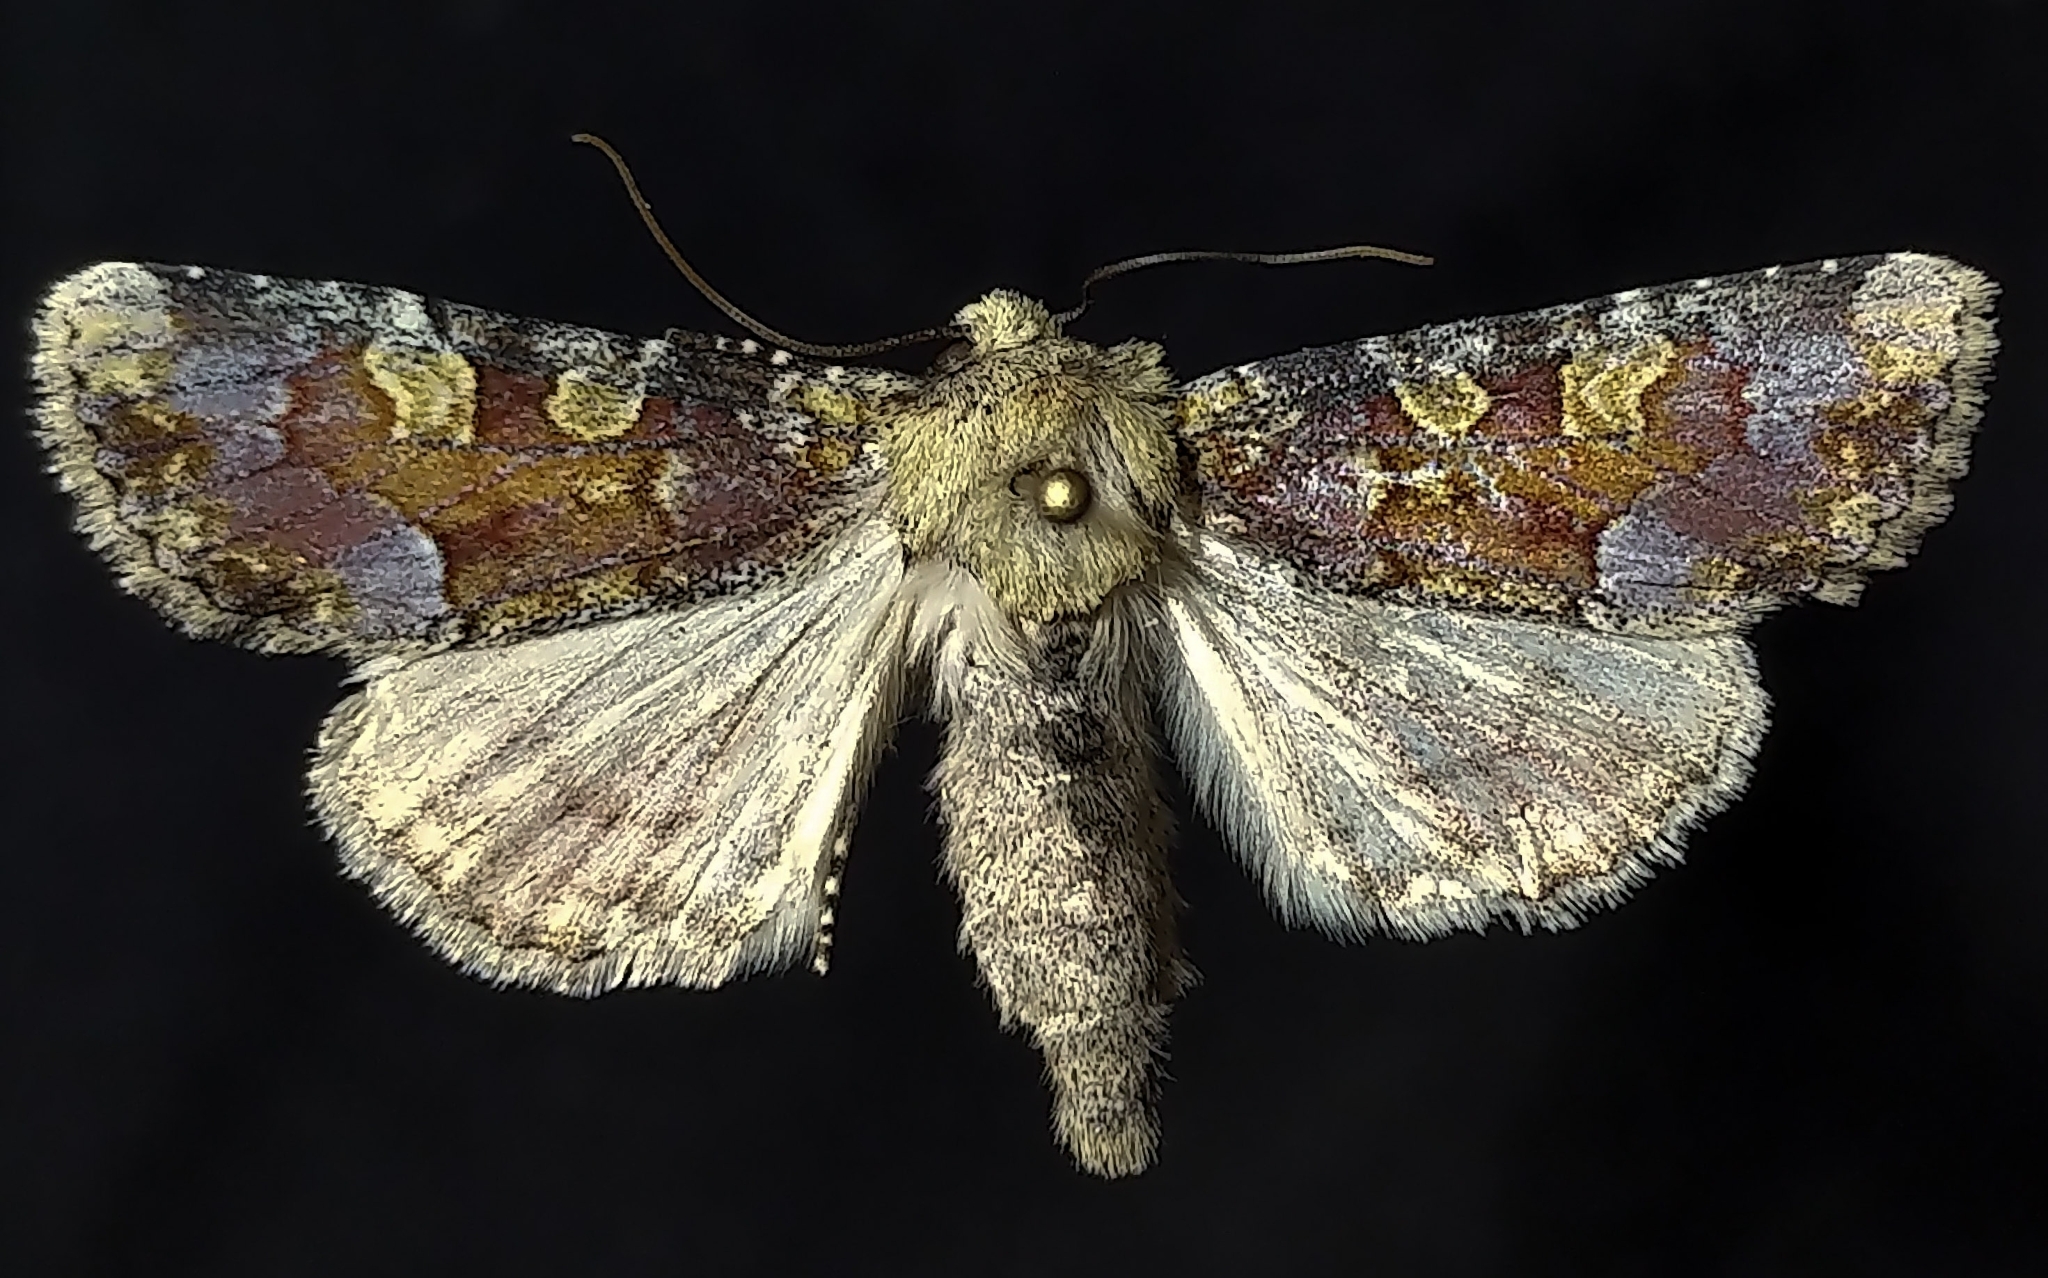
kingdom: Animalia
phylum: Arthropoda
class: Insecta
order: Lepidoptera
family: Noctuidae
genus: Oligia
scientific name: Oligia rampartensis
